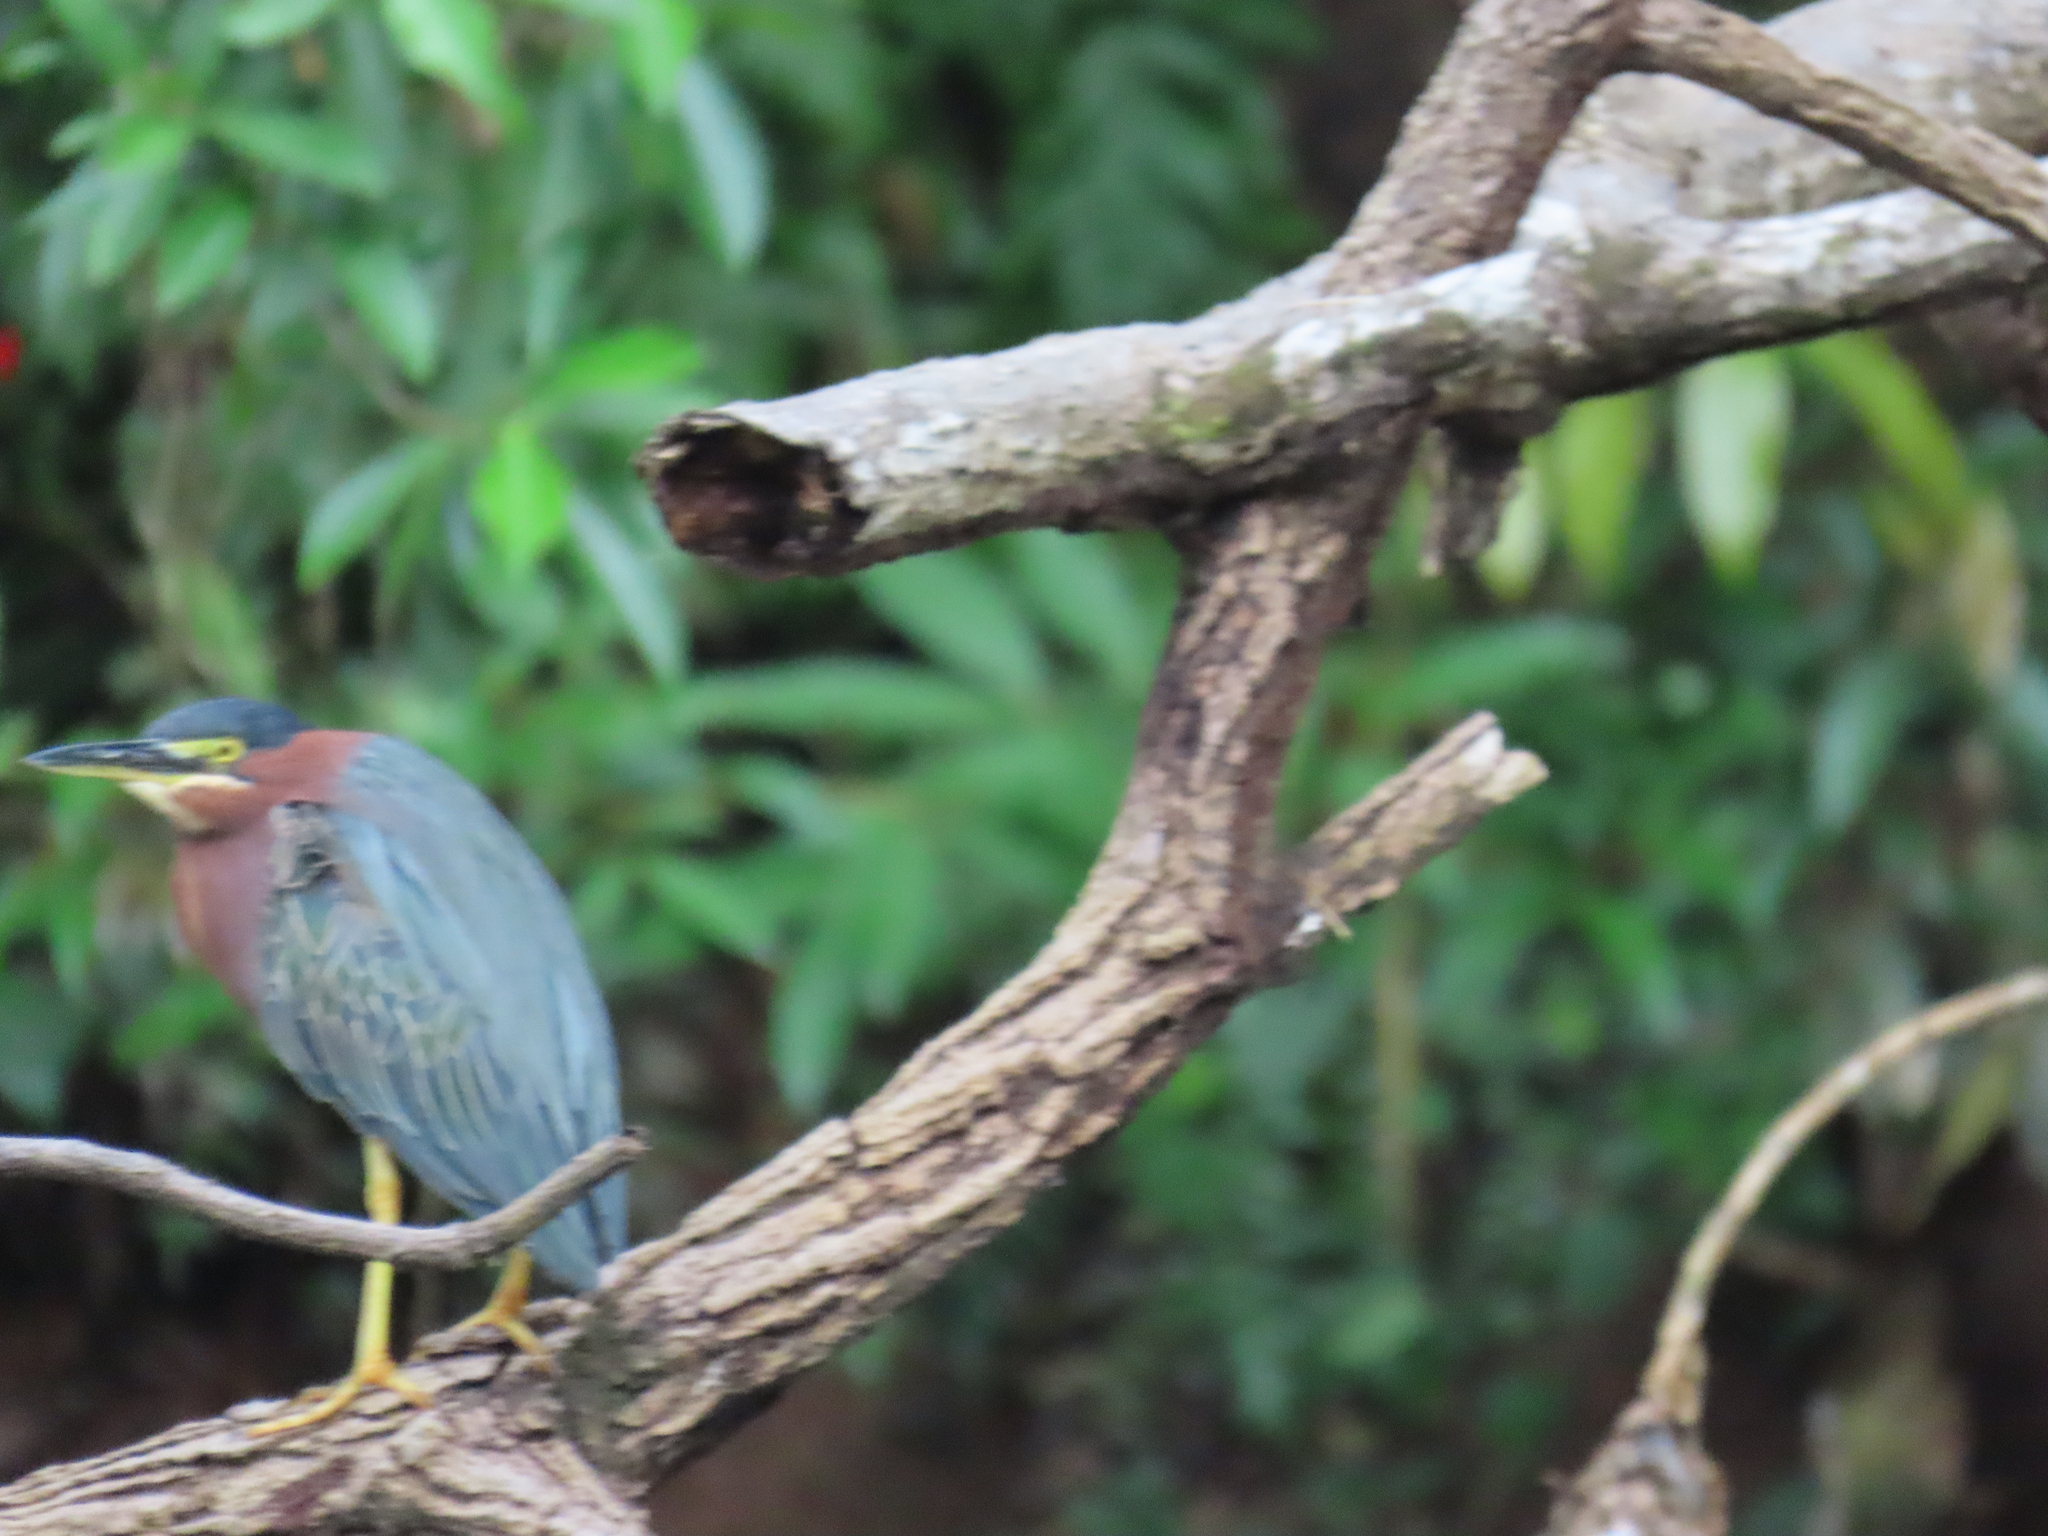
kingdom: Animalia
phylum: Chordata
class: Aves
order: Pelecaniformes
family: Ardeidae
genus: Butorides
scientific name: Butorides virescens
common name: Green heron
